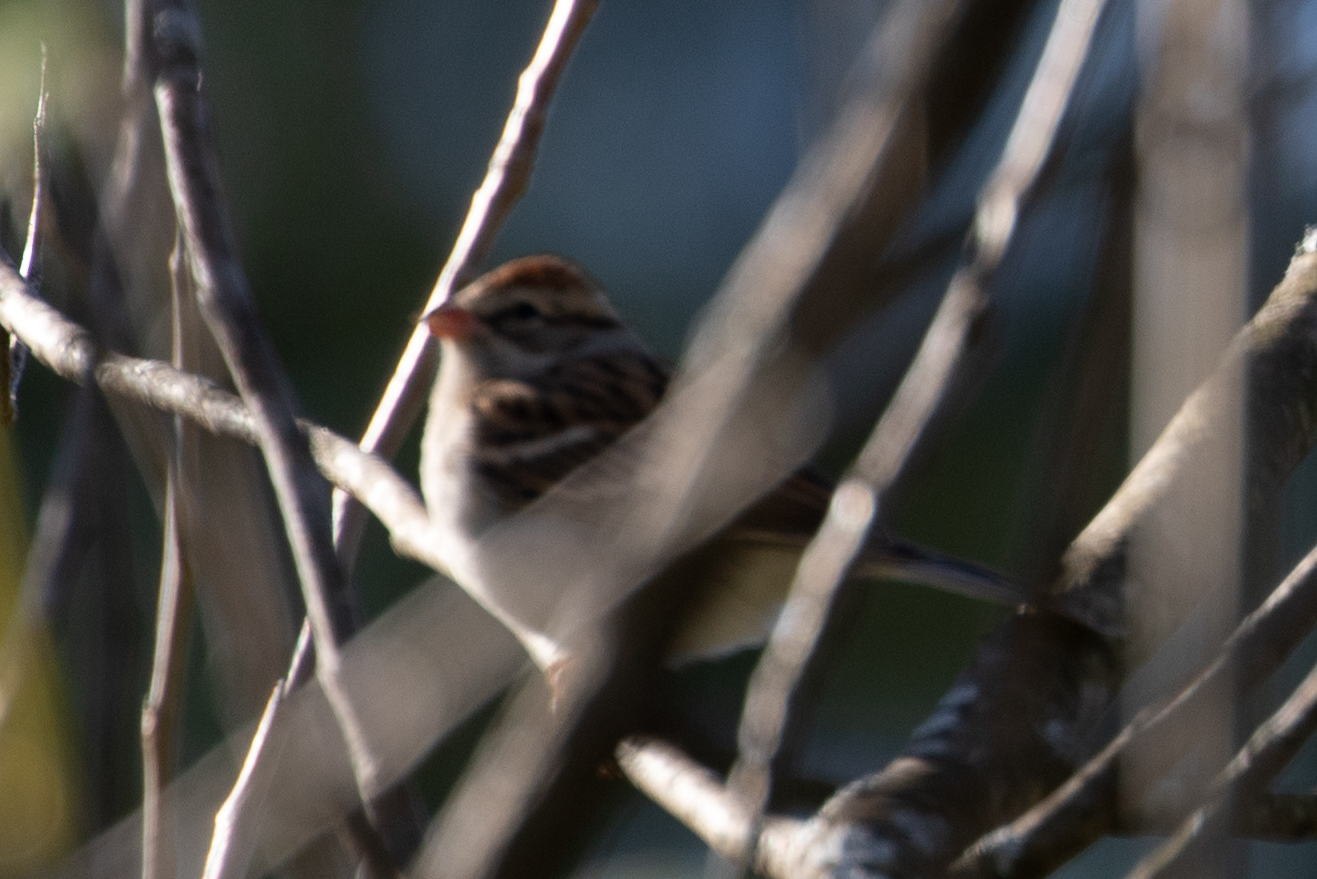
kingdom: Animalia
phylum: Chordata
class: Aves
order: Passeriformes
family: Passerellidae
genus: Spizella
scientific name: Spizella passerina
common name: Chipping sparrow
